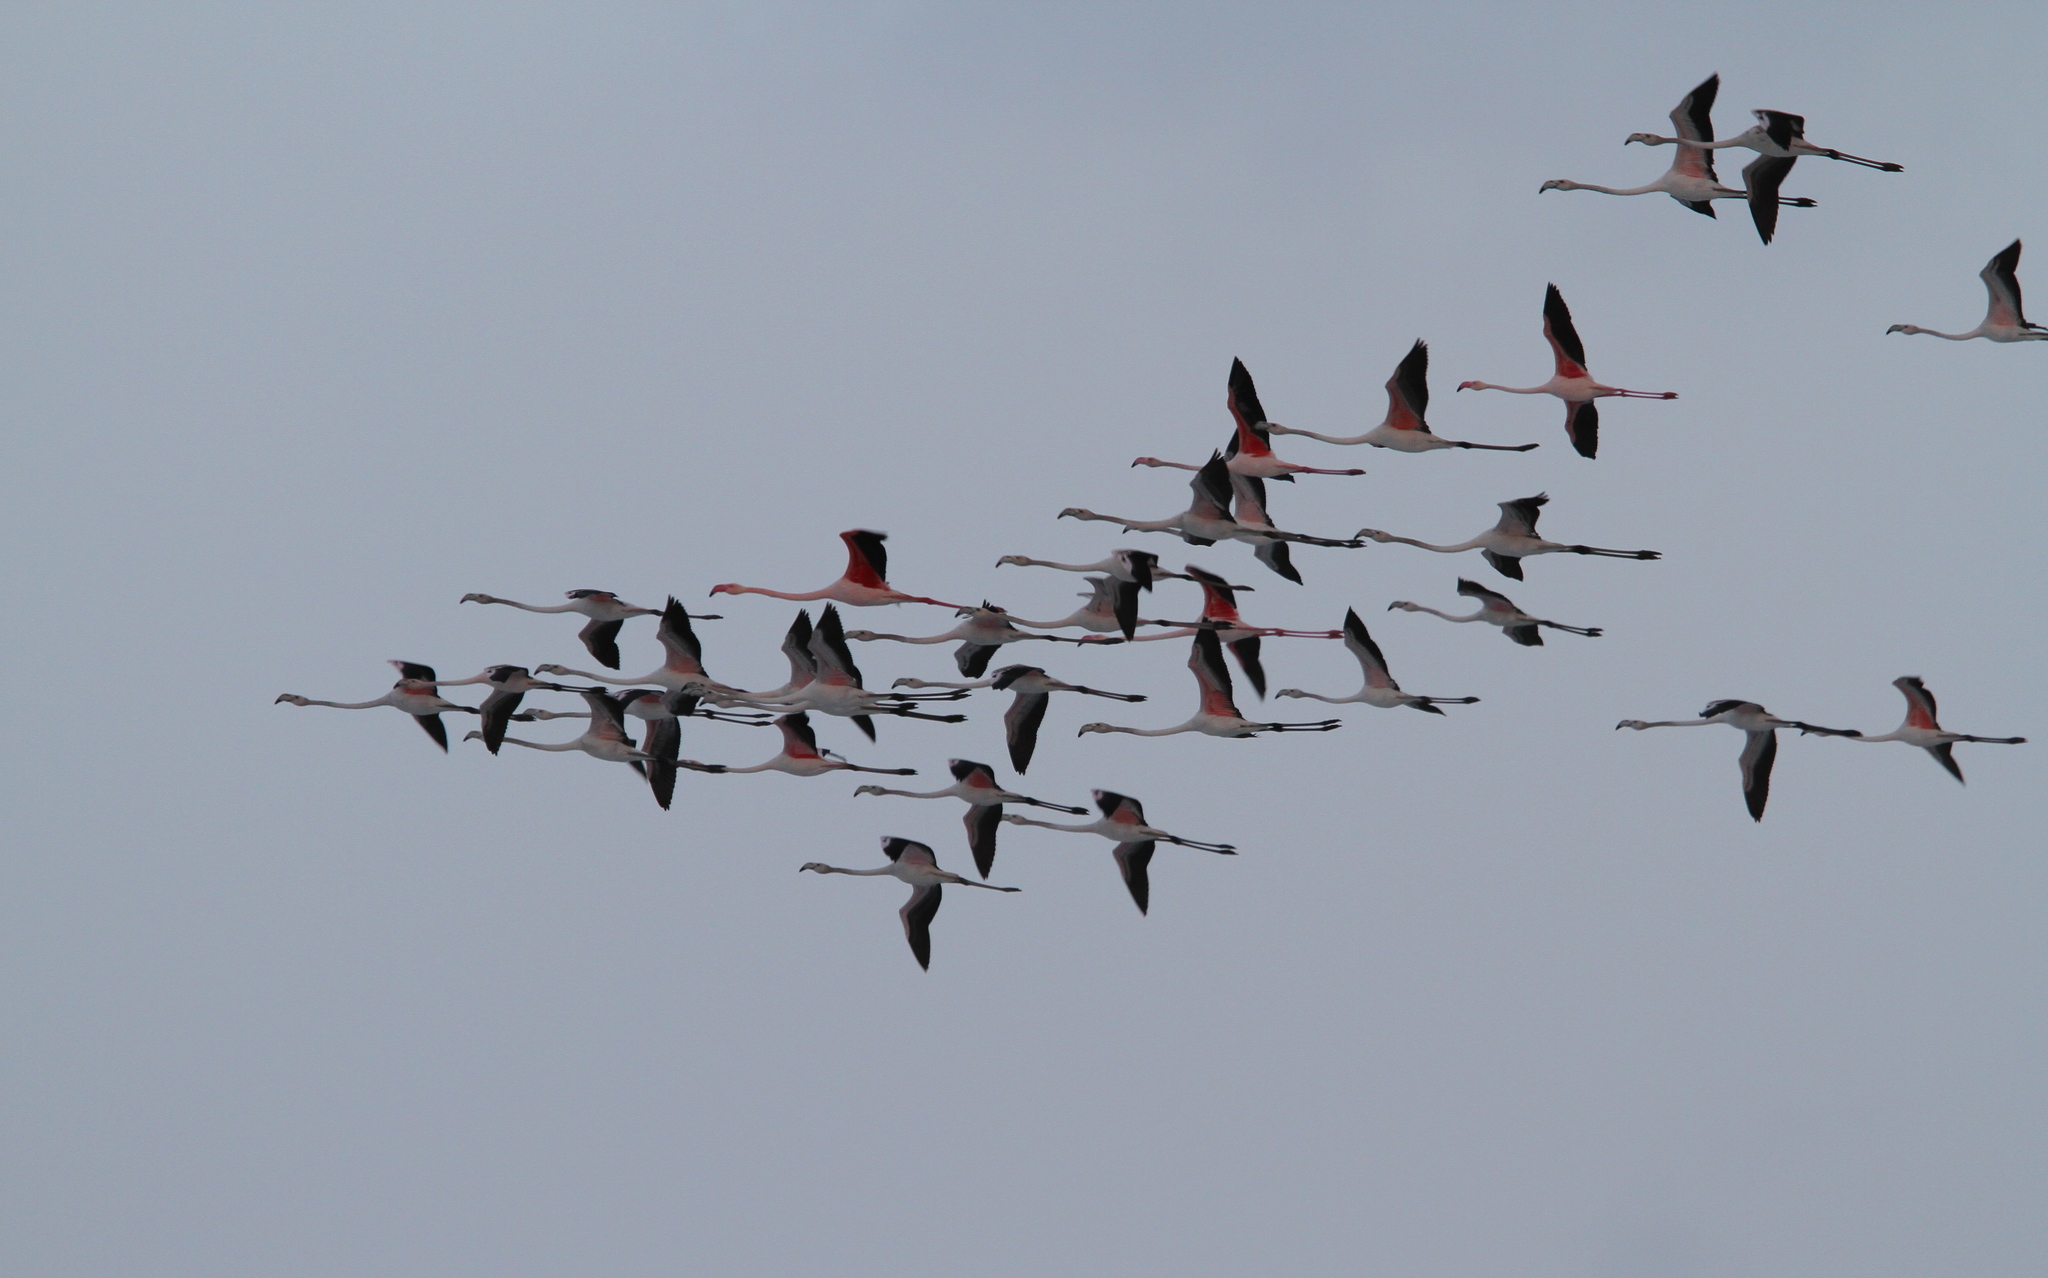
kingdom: Animalia
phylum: Chordata
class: Aves
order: Phoenicopteriformes
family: Phoenicopteridae
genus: Phoenicopterus
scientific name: Phoenicopterus roseus
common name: Greater flamingo
